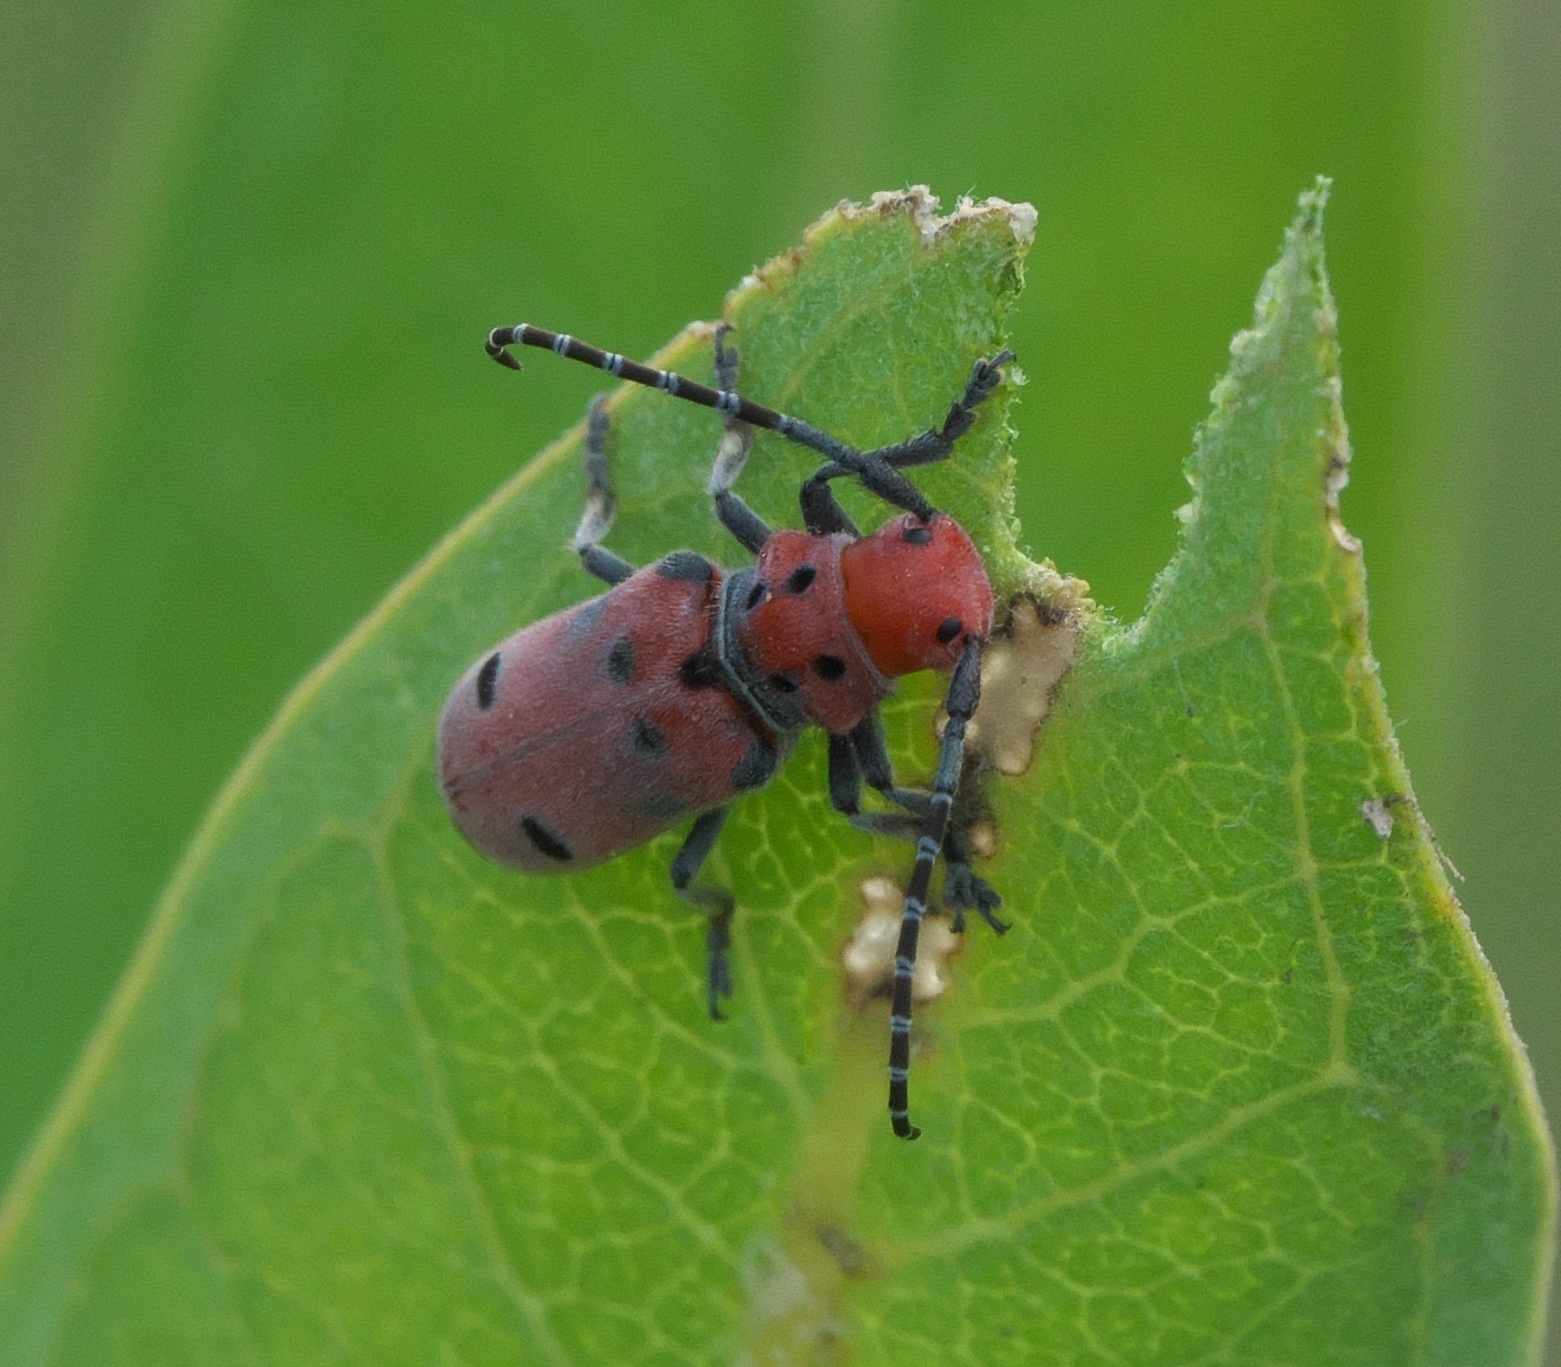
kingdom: Animalia
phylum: Arthropoda
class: Insecta
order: Coleoptera
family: Cerambycidae
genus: Tetraopes
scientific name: Tetraopes annulatus
